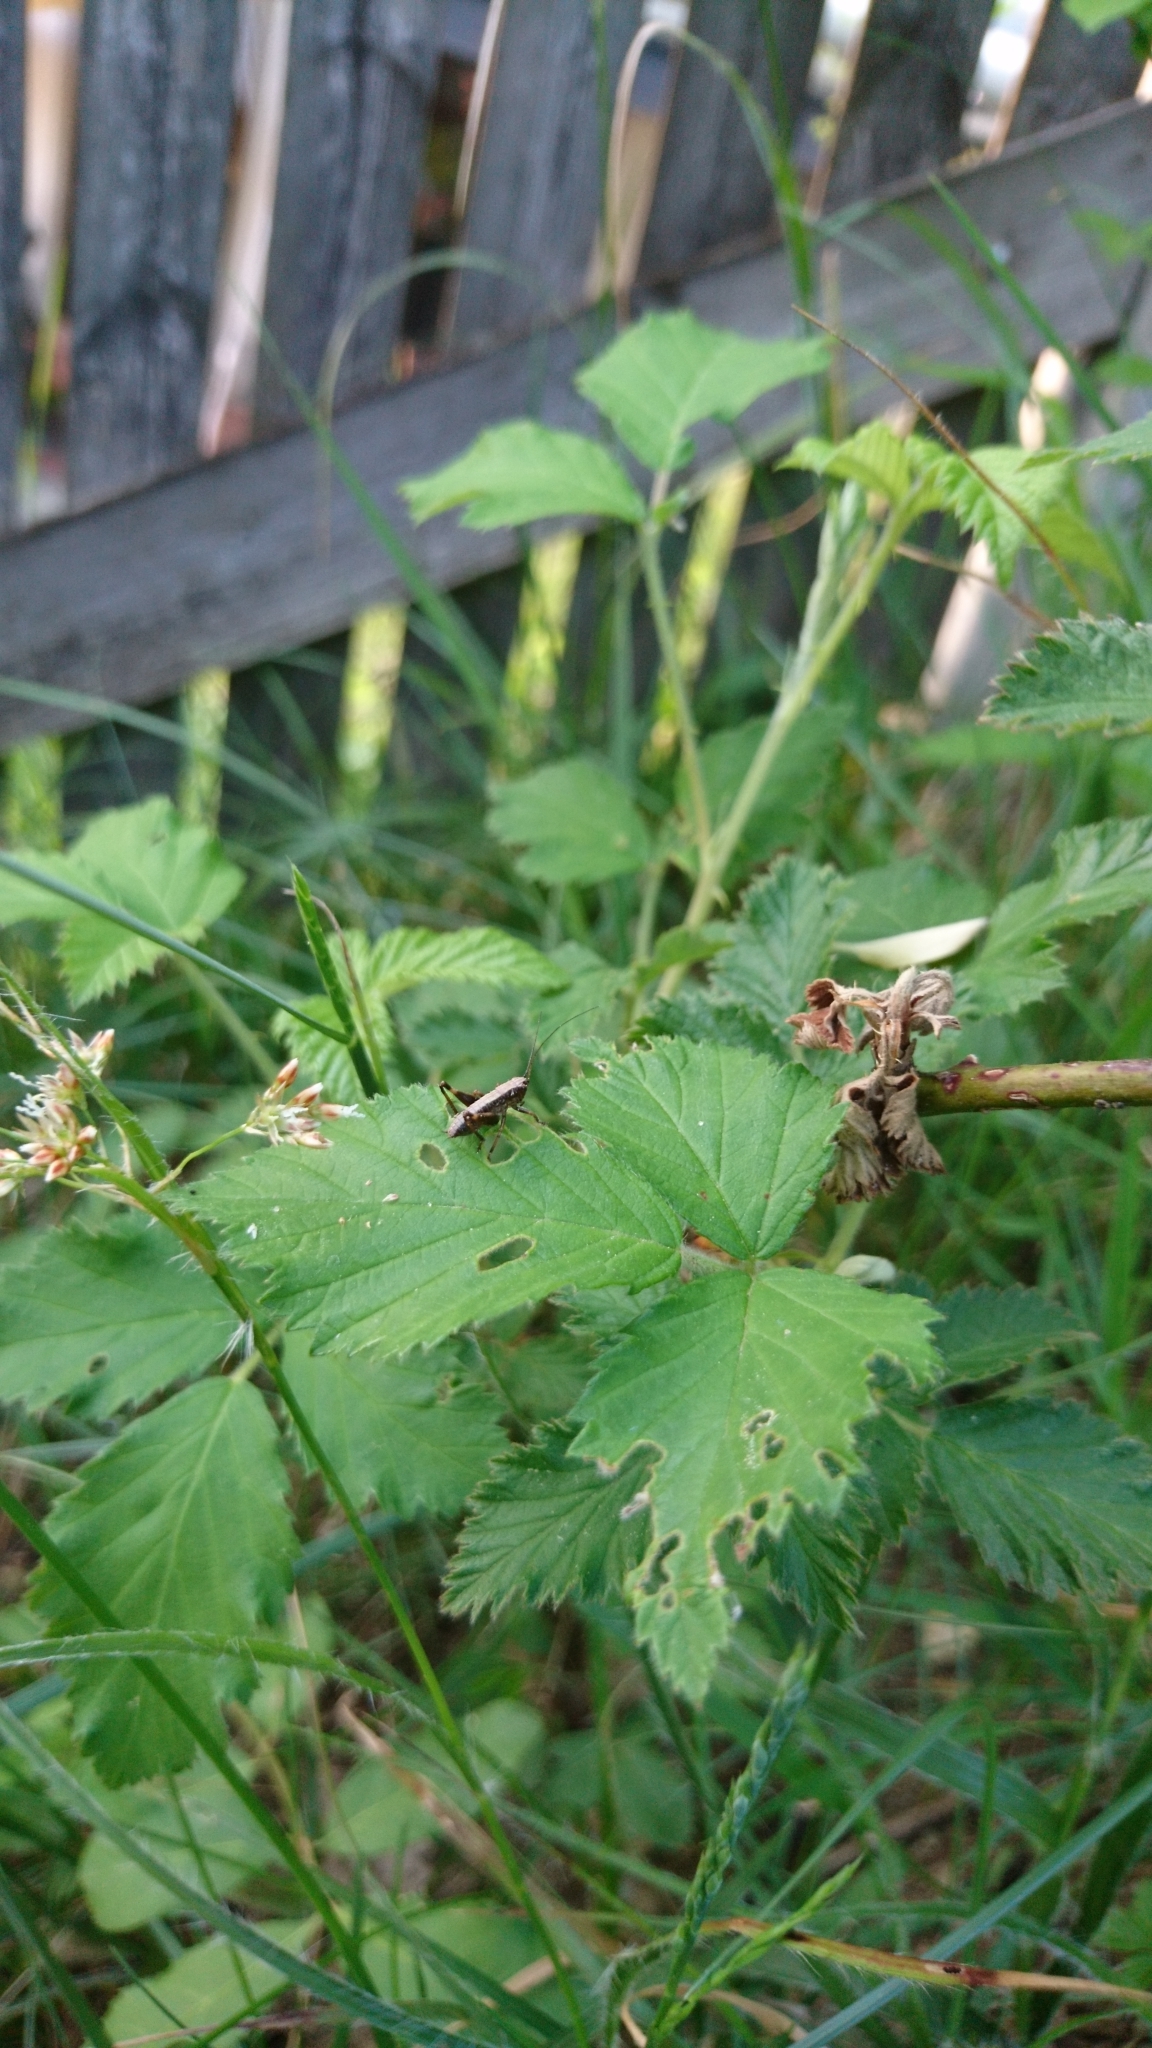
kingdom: Animalia
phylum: Arthropoda
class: Insecta
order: Orthoptera
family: Tettigoniidae
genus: Pholidoptera
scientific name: Pholidoptera griseoaptera
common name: Dark bush-cricket
